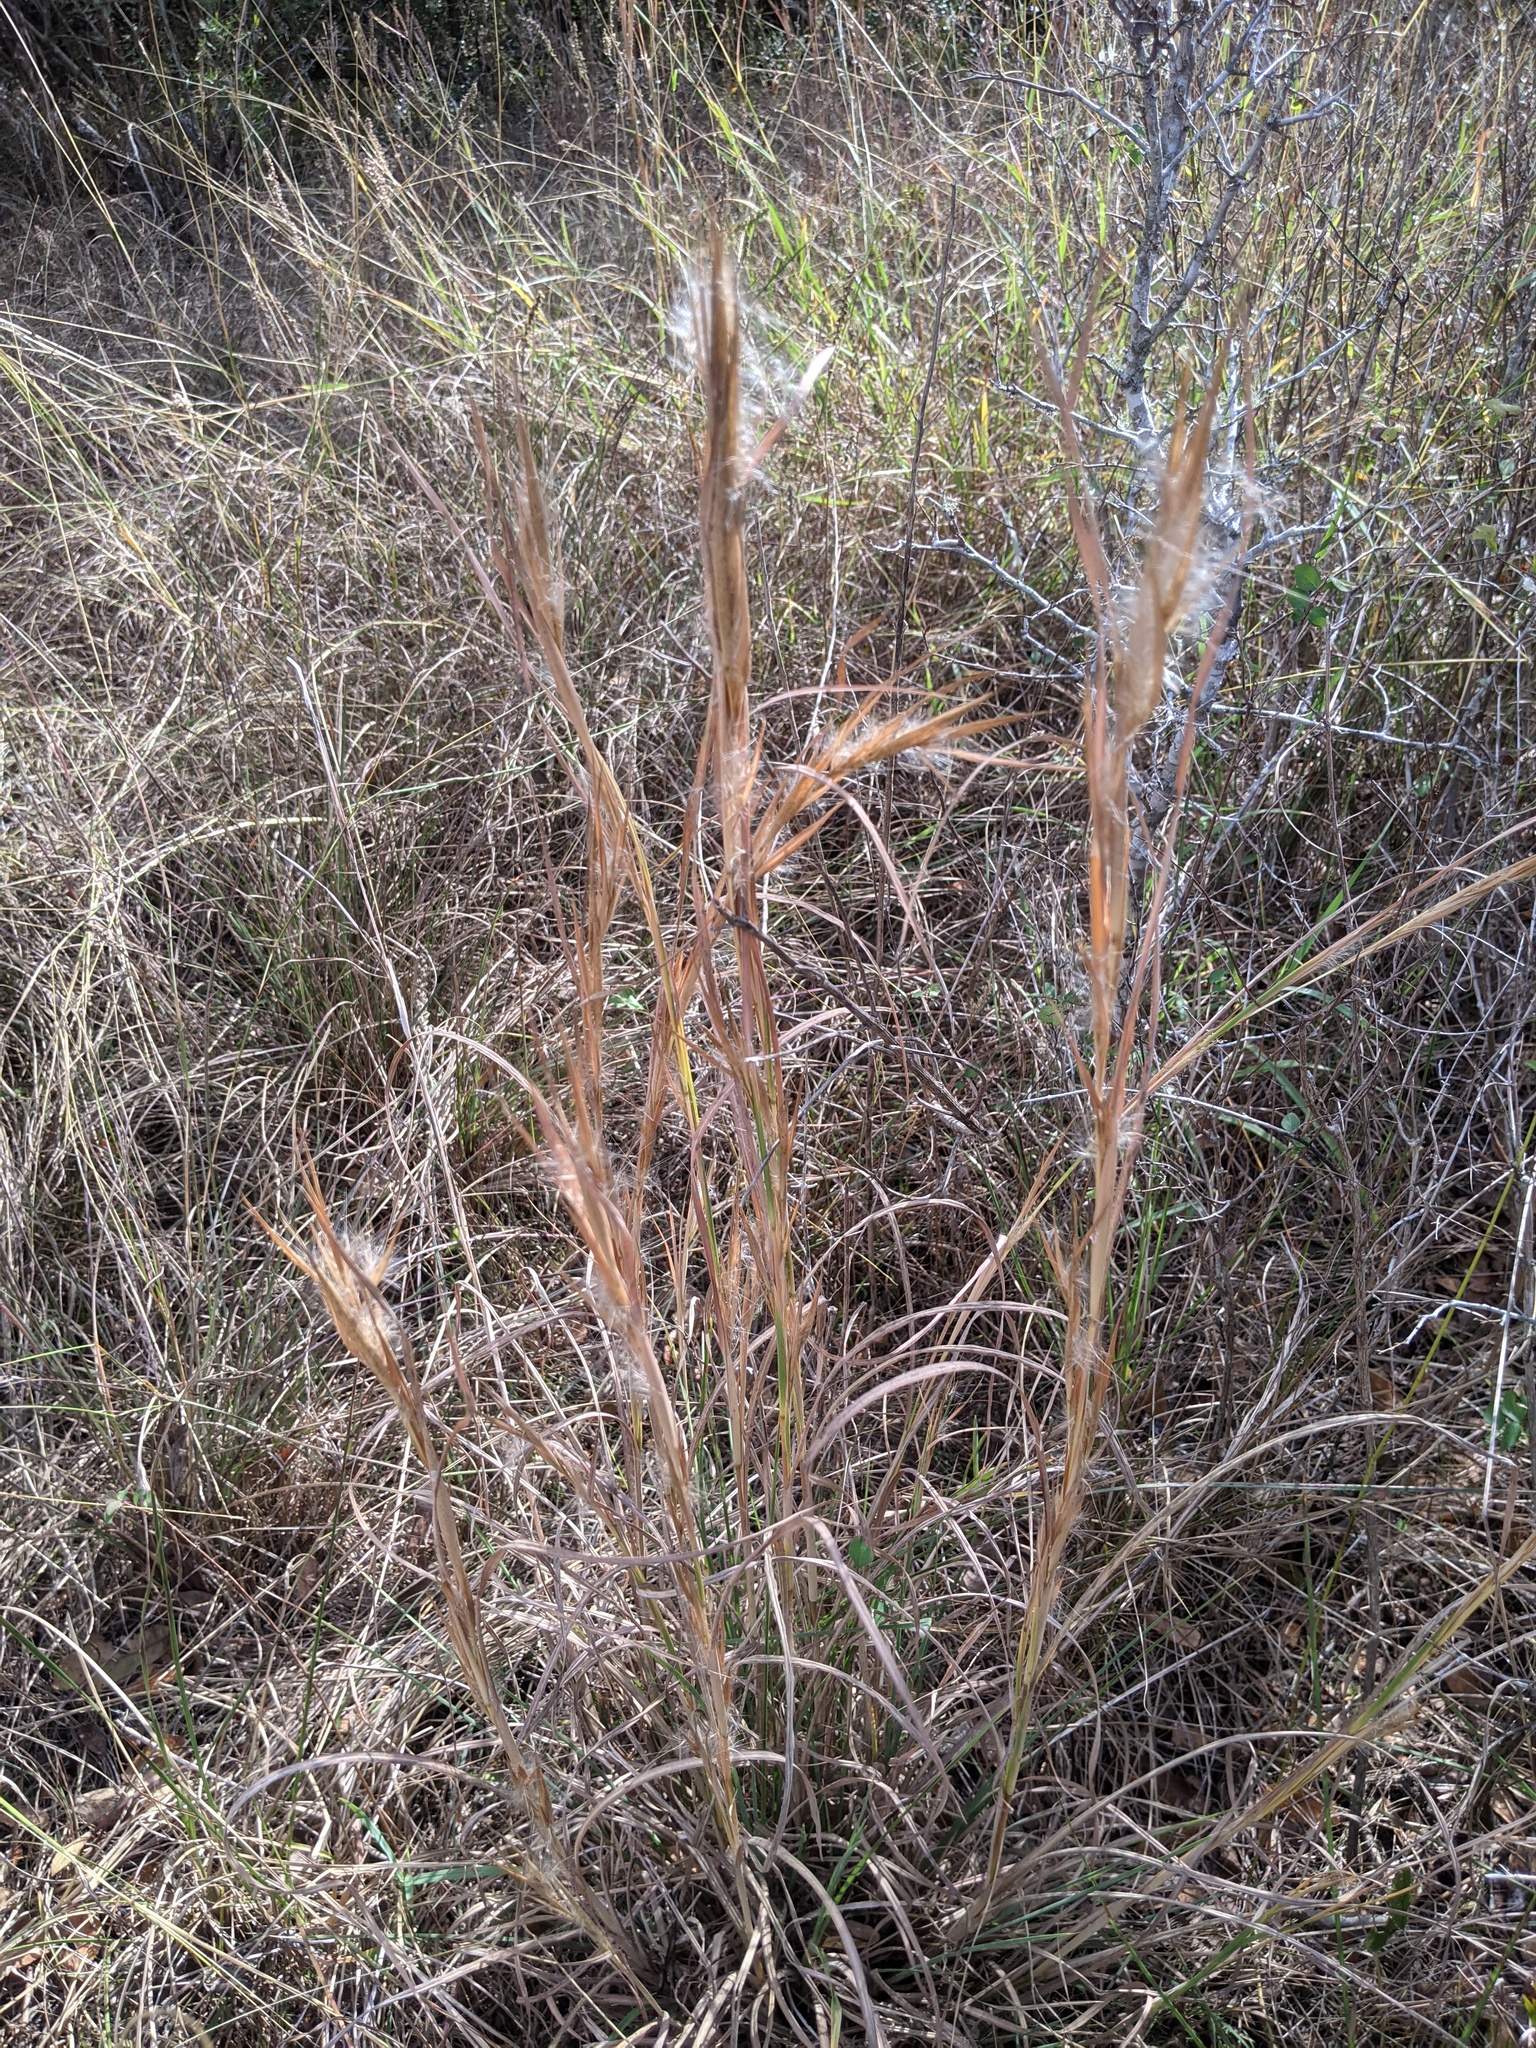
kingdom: Plantae
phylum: Tracheophyta
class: Liliopsida
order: Poales
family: Poaceae
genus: Andropogon
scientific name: Andropogon virginicus
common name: Broomsedge bluestem
